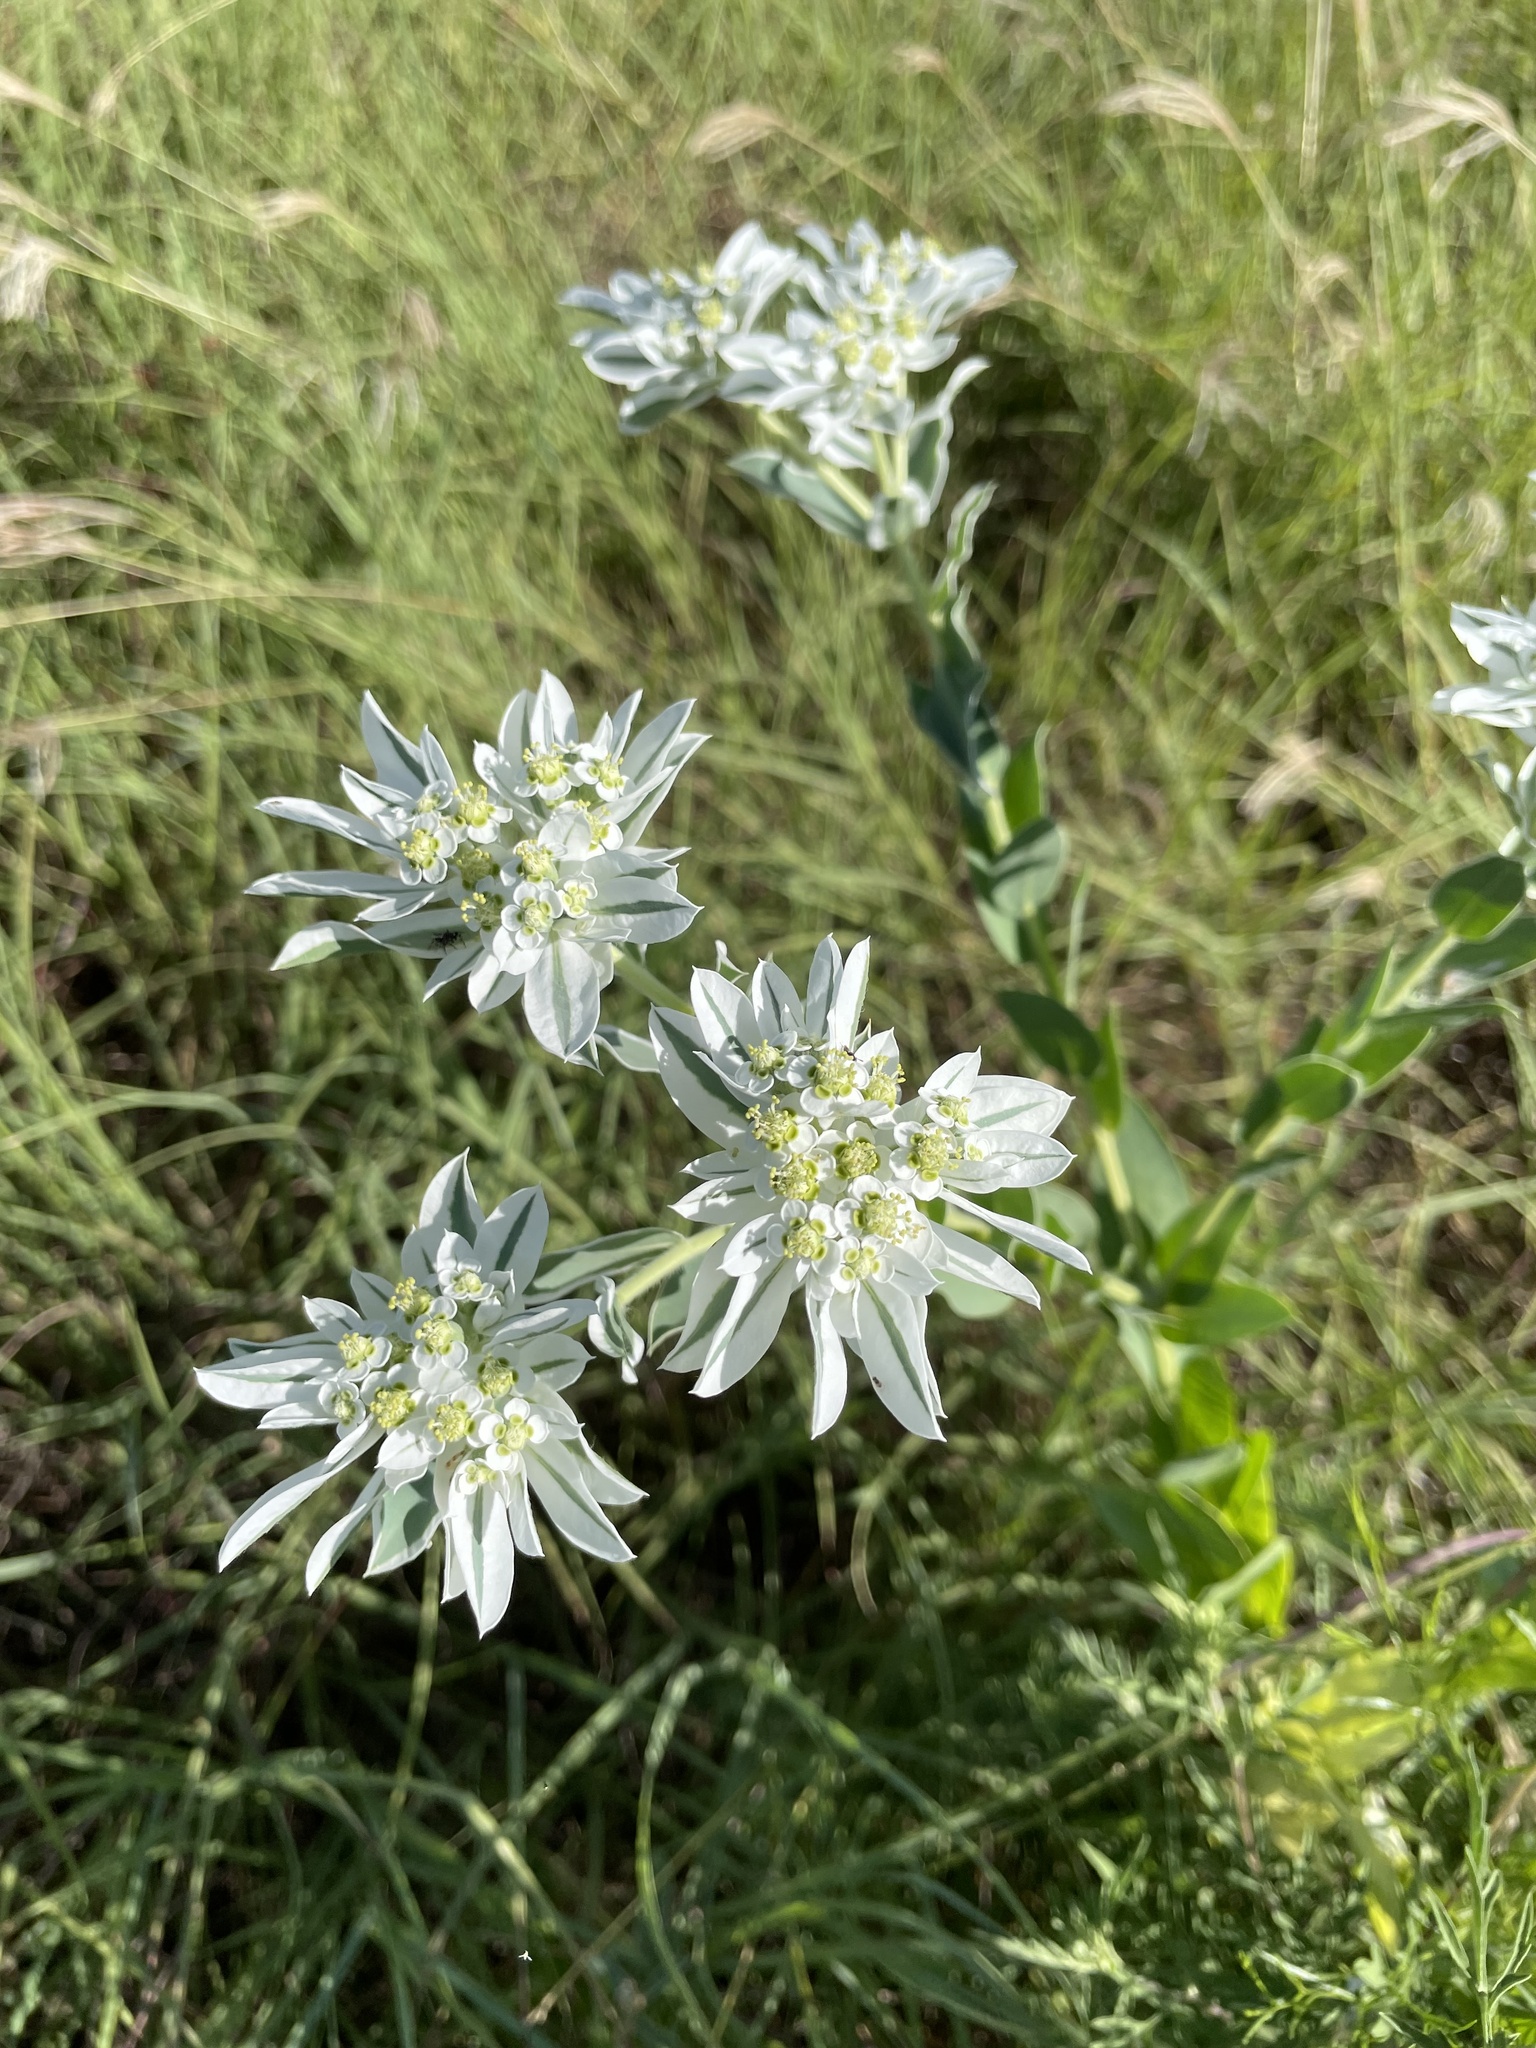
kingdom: Plantae
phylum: Tracheophyta
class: Magnoliopsida
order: Malpighiales
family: Euphorbiaceae
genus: Euphorbia
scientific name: Euphorbia marginata
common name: Ghostweed
